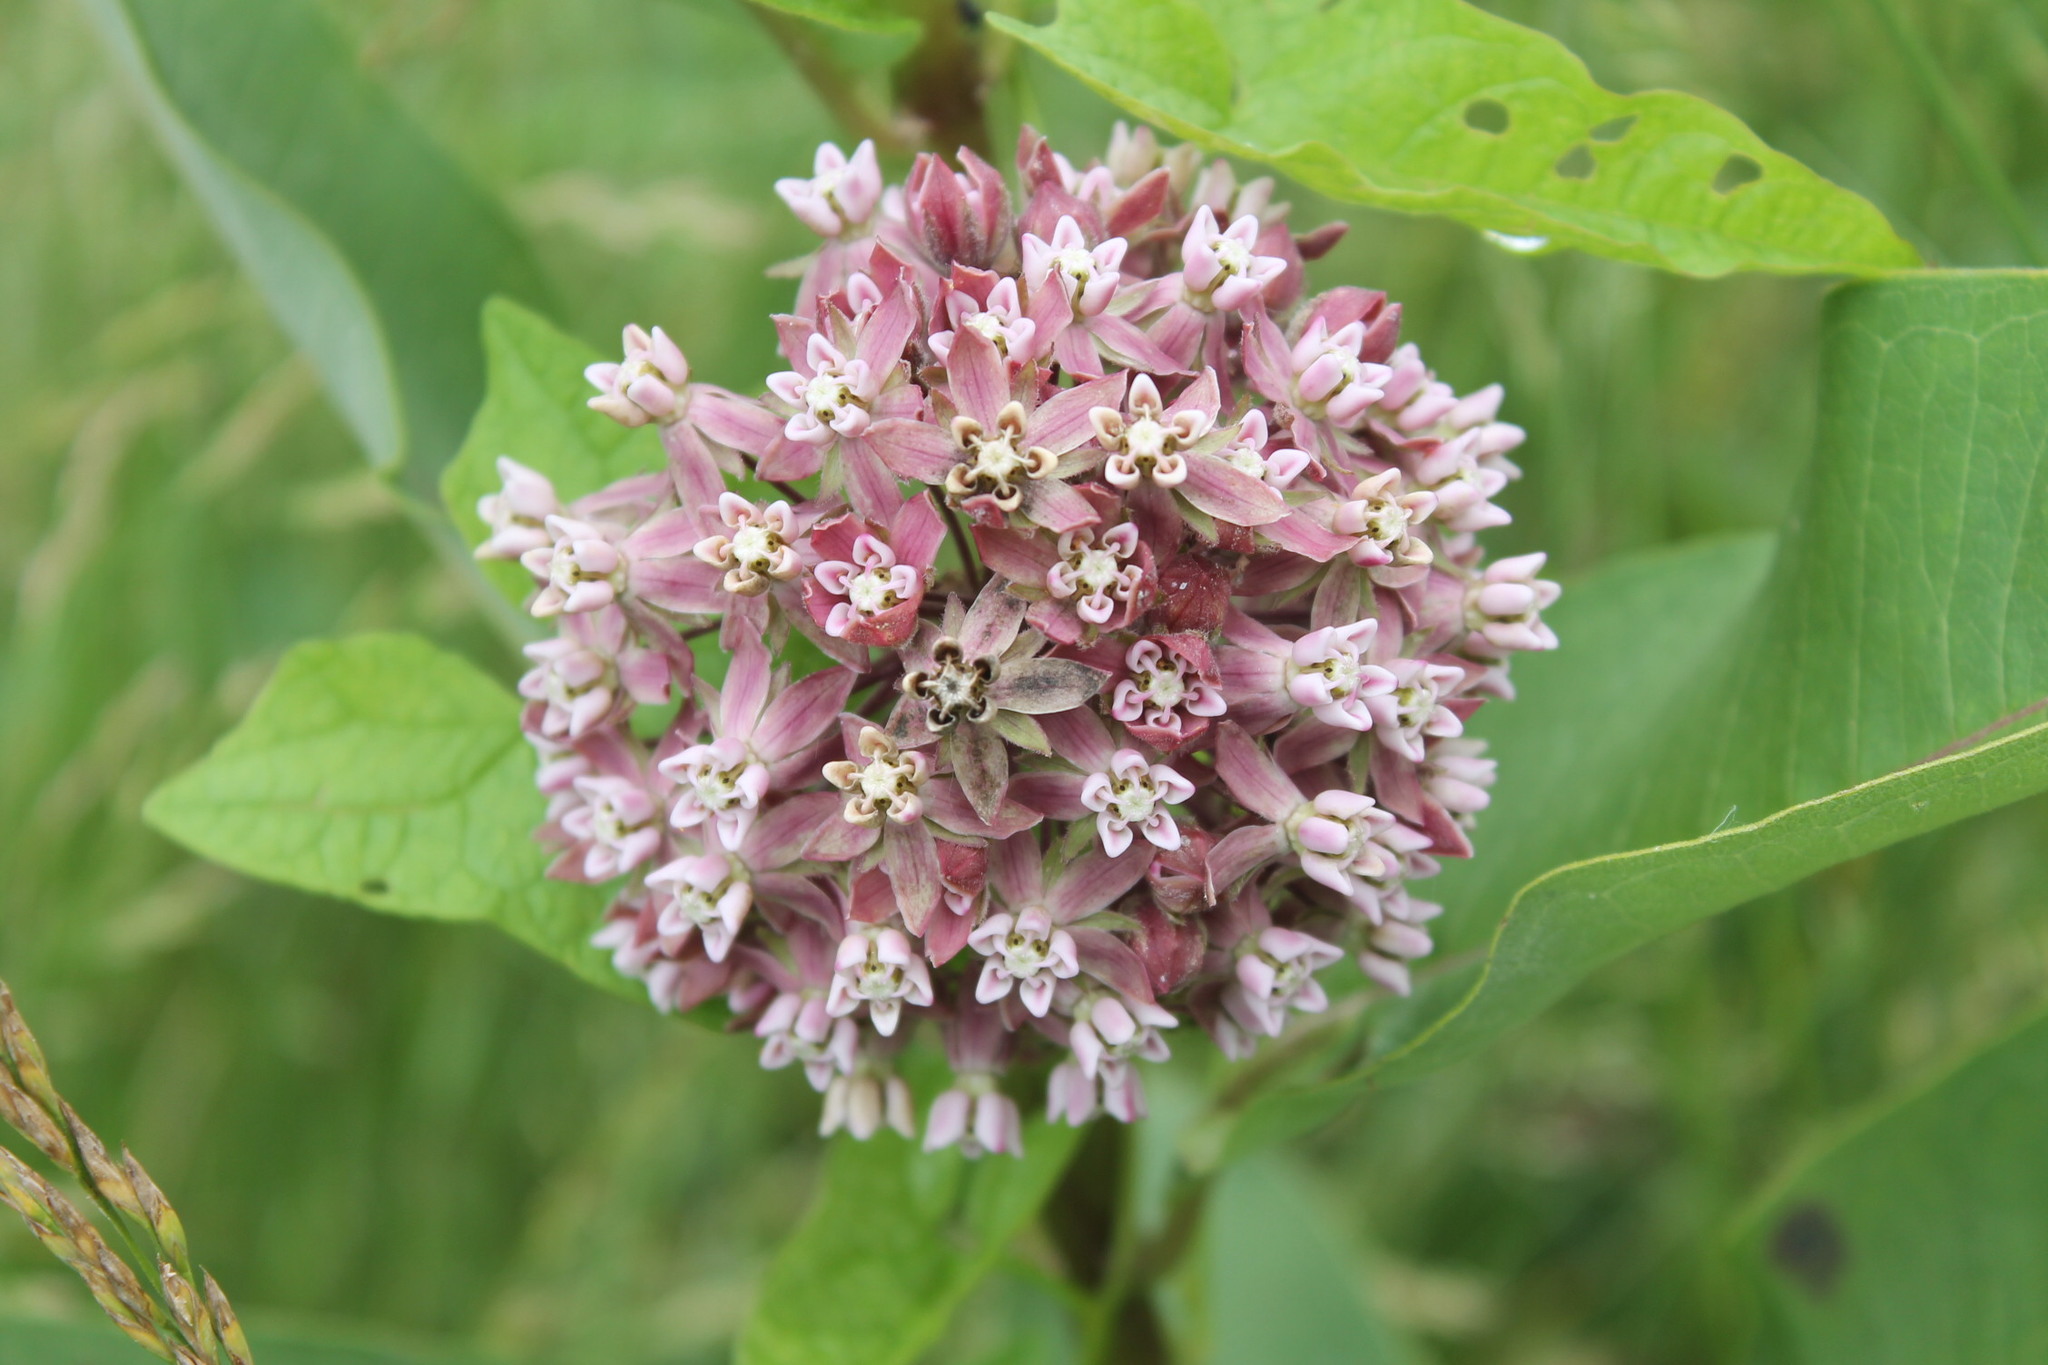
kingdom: Plantae
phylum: Tracheophyta
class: Magnoliopsida
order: Gentianales
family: Apocynaceae
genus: Asclepias
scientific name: Asclepias syriaca
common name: Common milkweed
